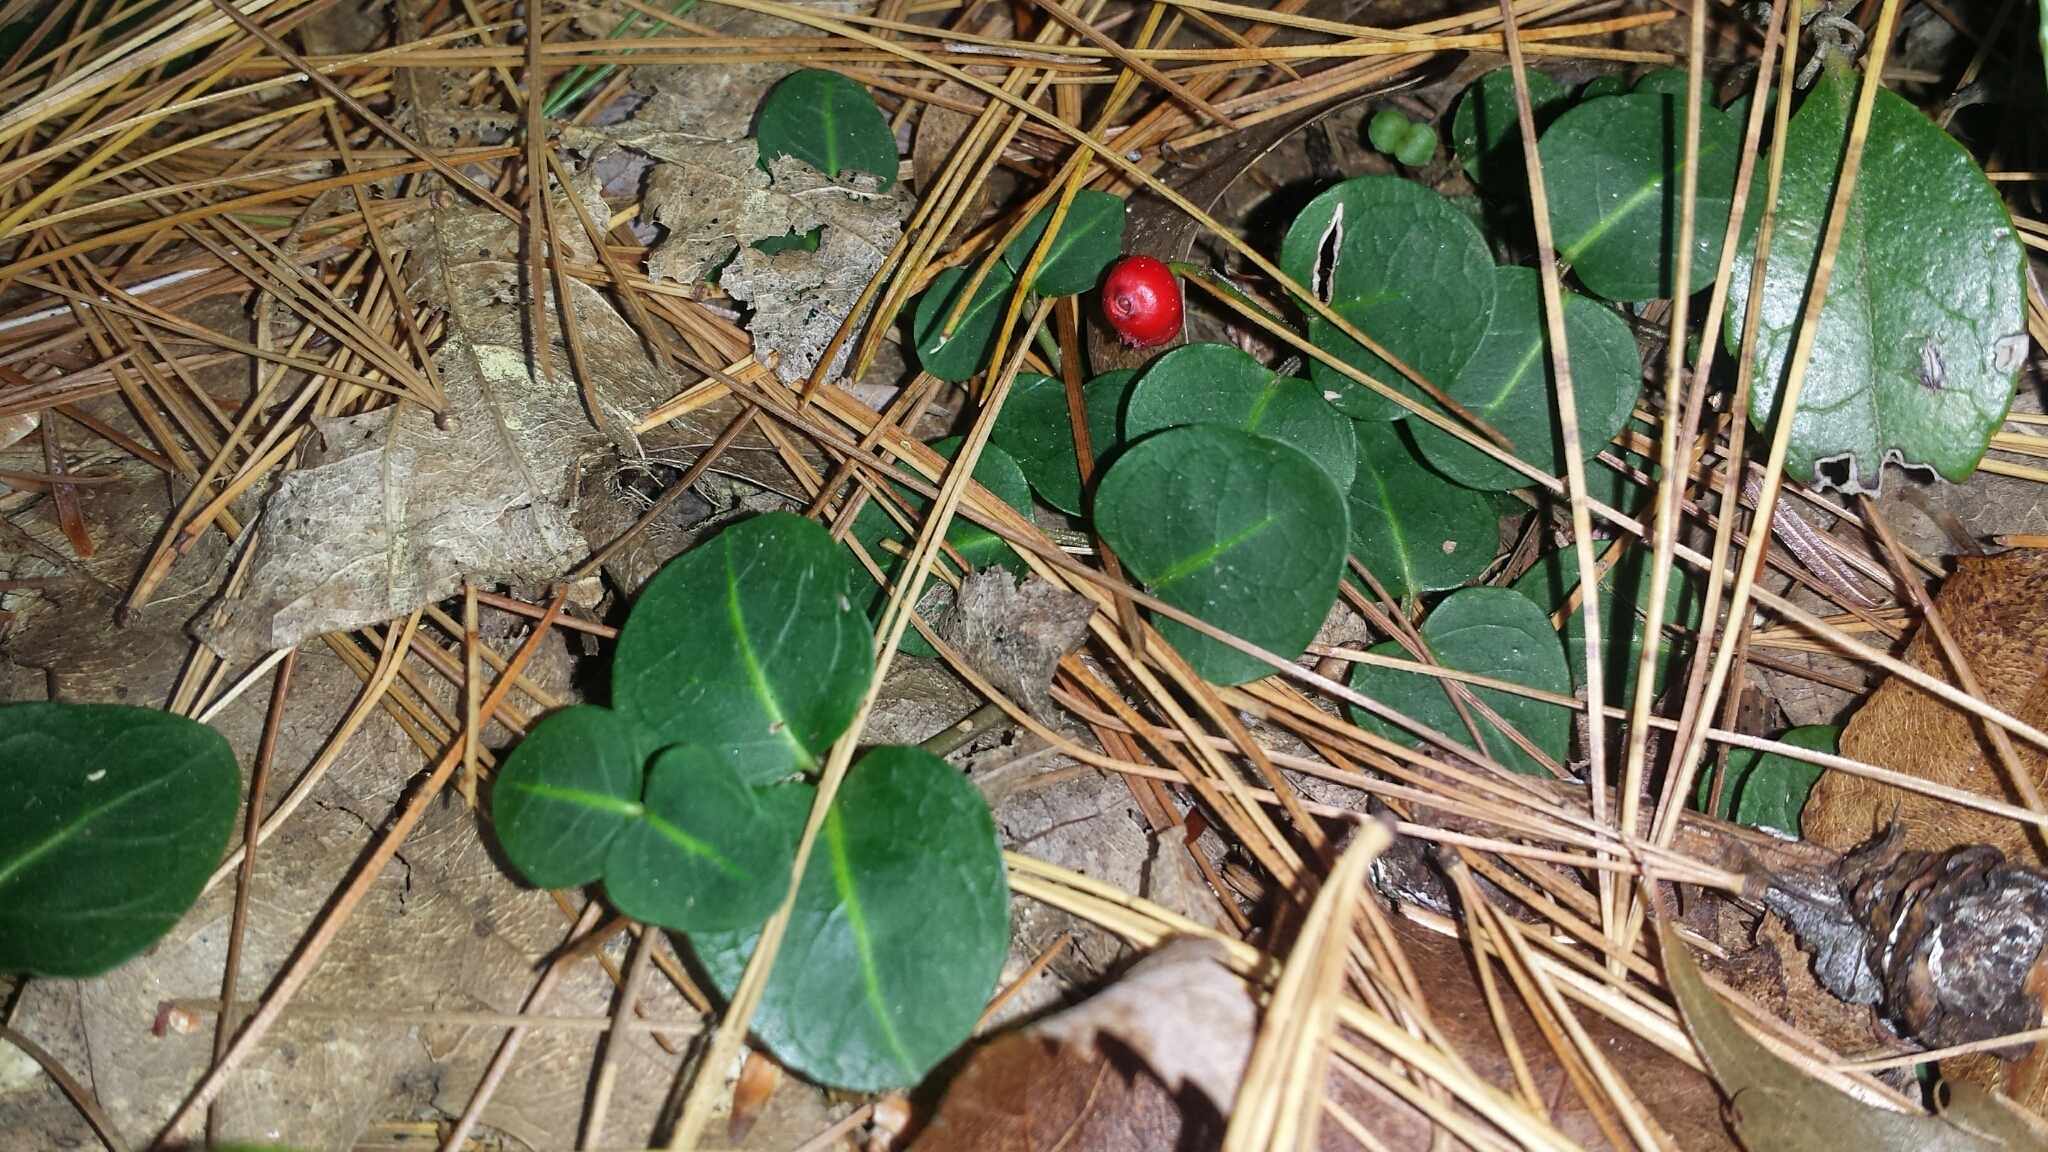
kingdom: Plantae
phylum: Tracheophyta
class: Magnoliopsida
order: Gentianales
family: Rubiaceae
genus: Mitchella
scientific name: Mitchella repens
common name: Partridge-berry
